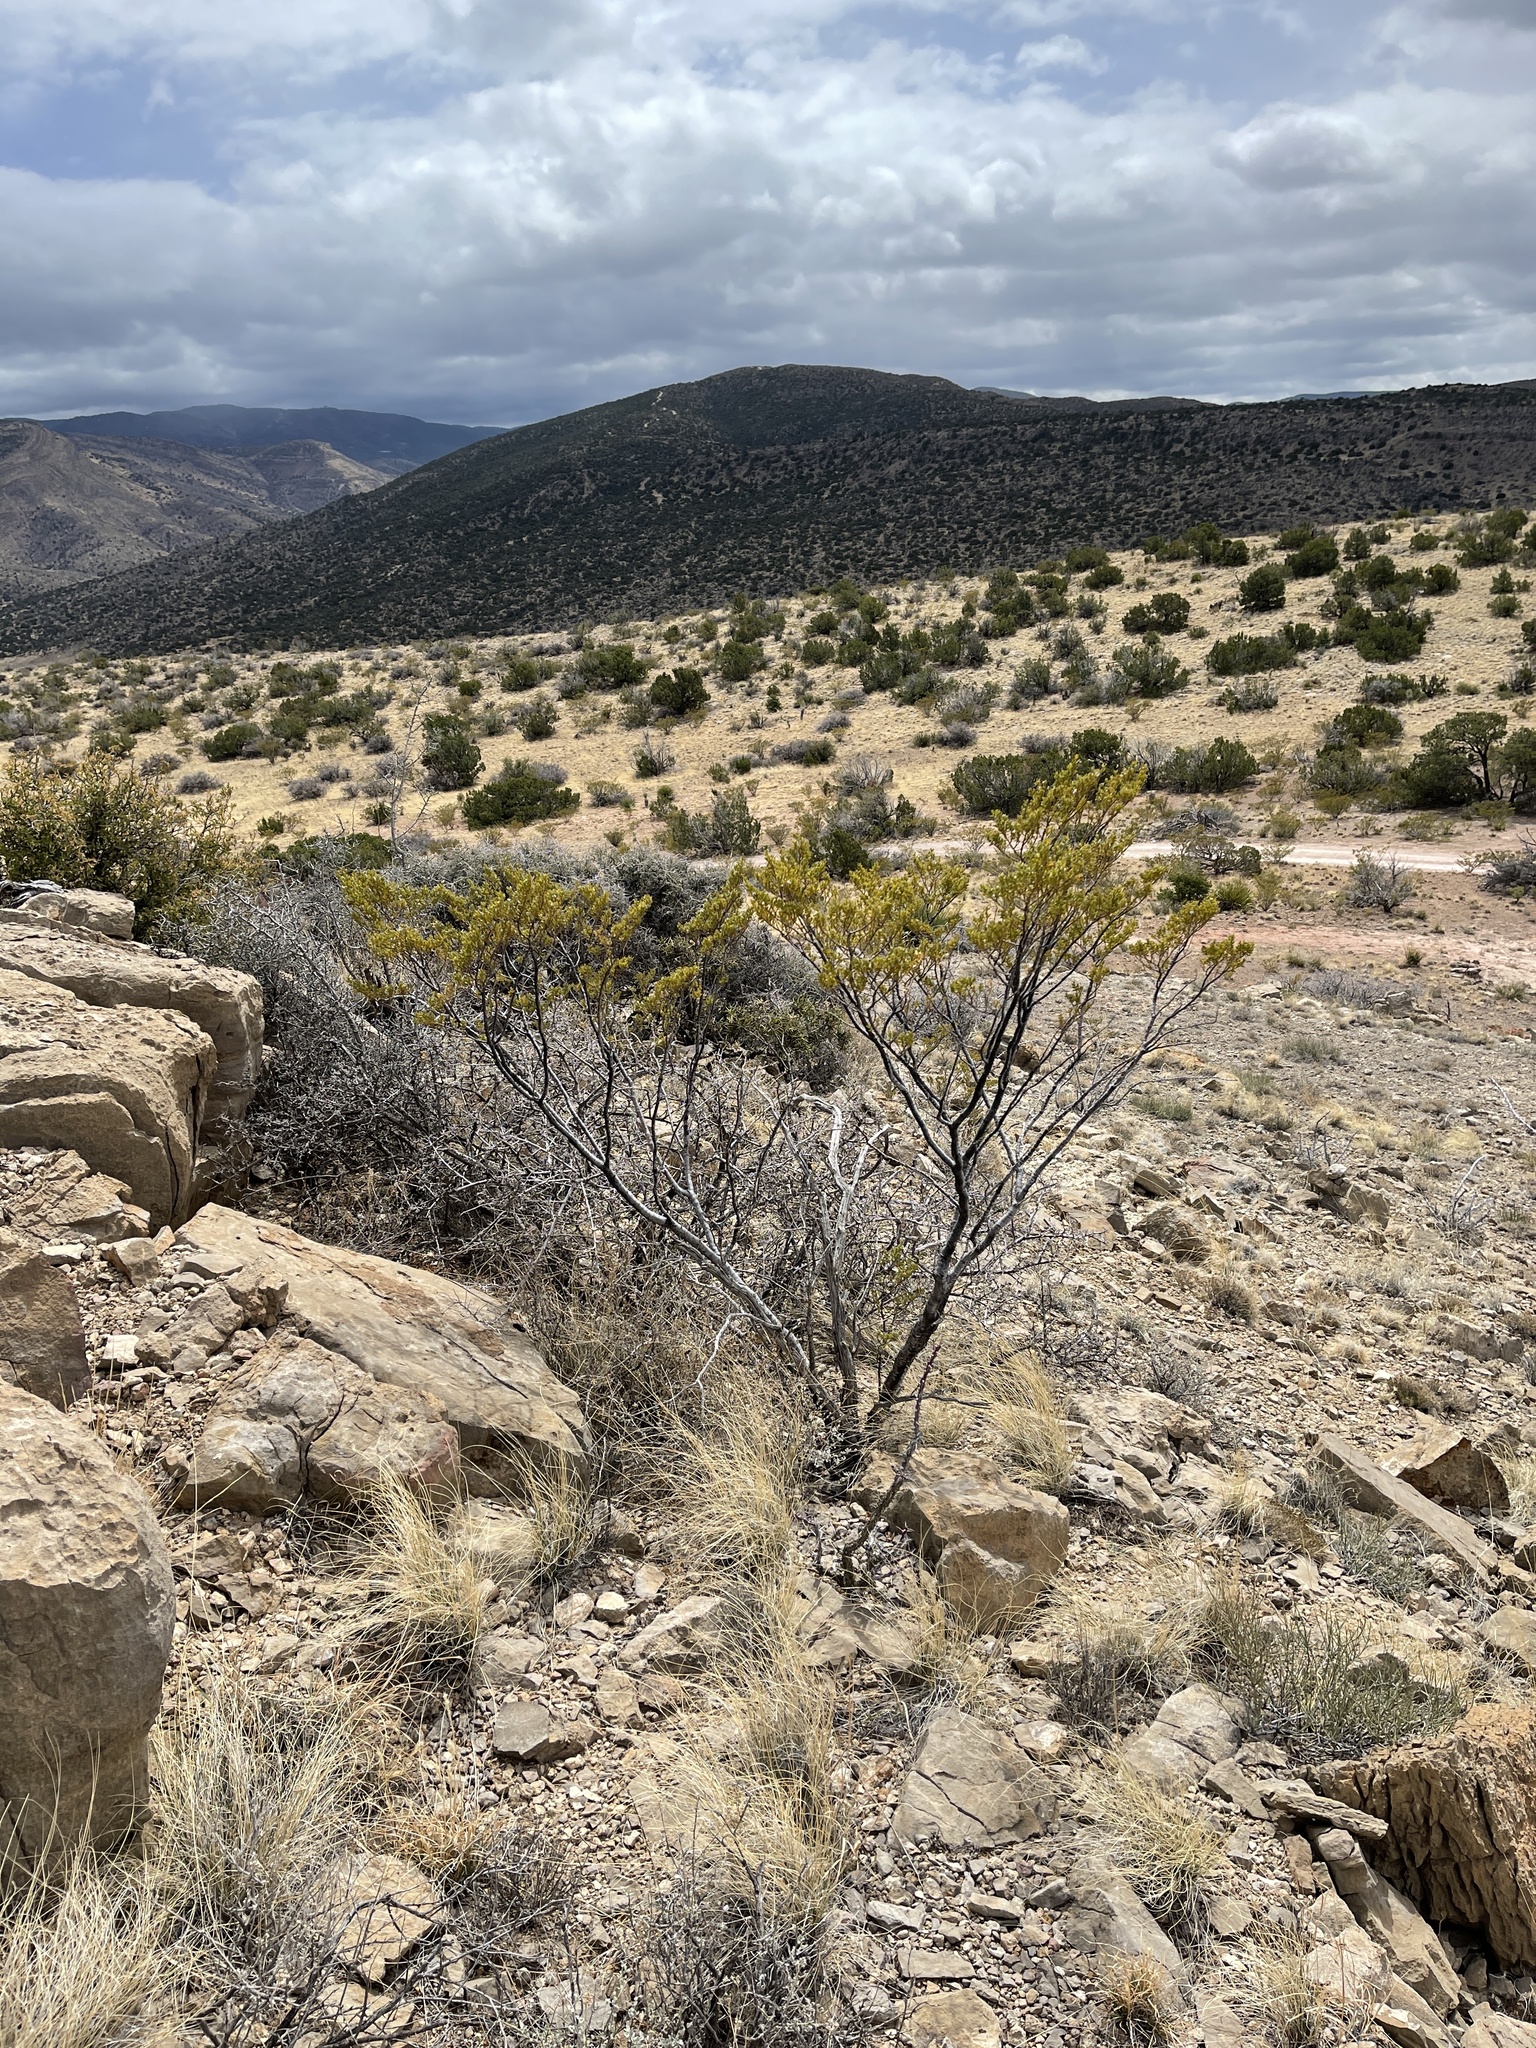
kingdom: Plantae
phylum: Tracheophyta
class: Magnoliopsida
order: Zygophyllales
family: Zygophyllaceae
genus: Larrea
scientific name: Larrea tridentata
